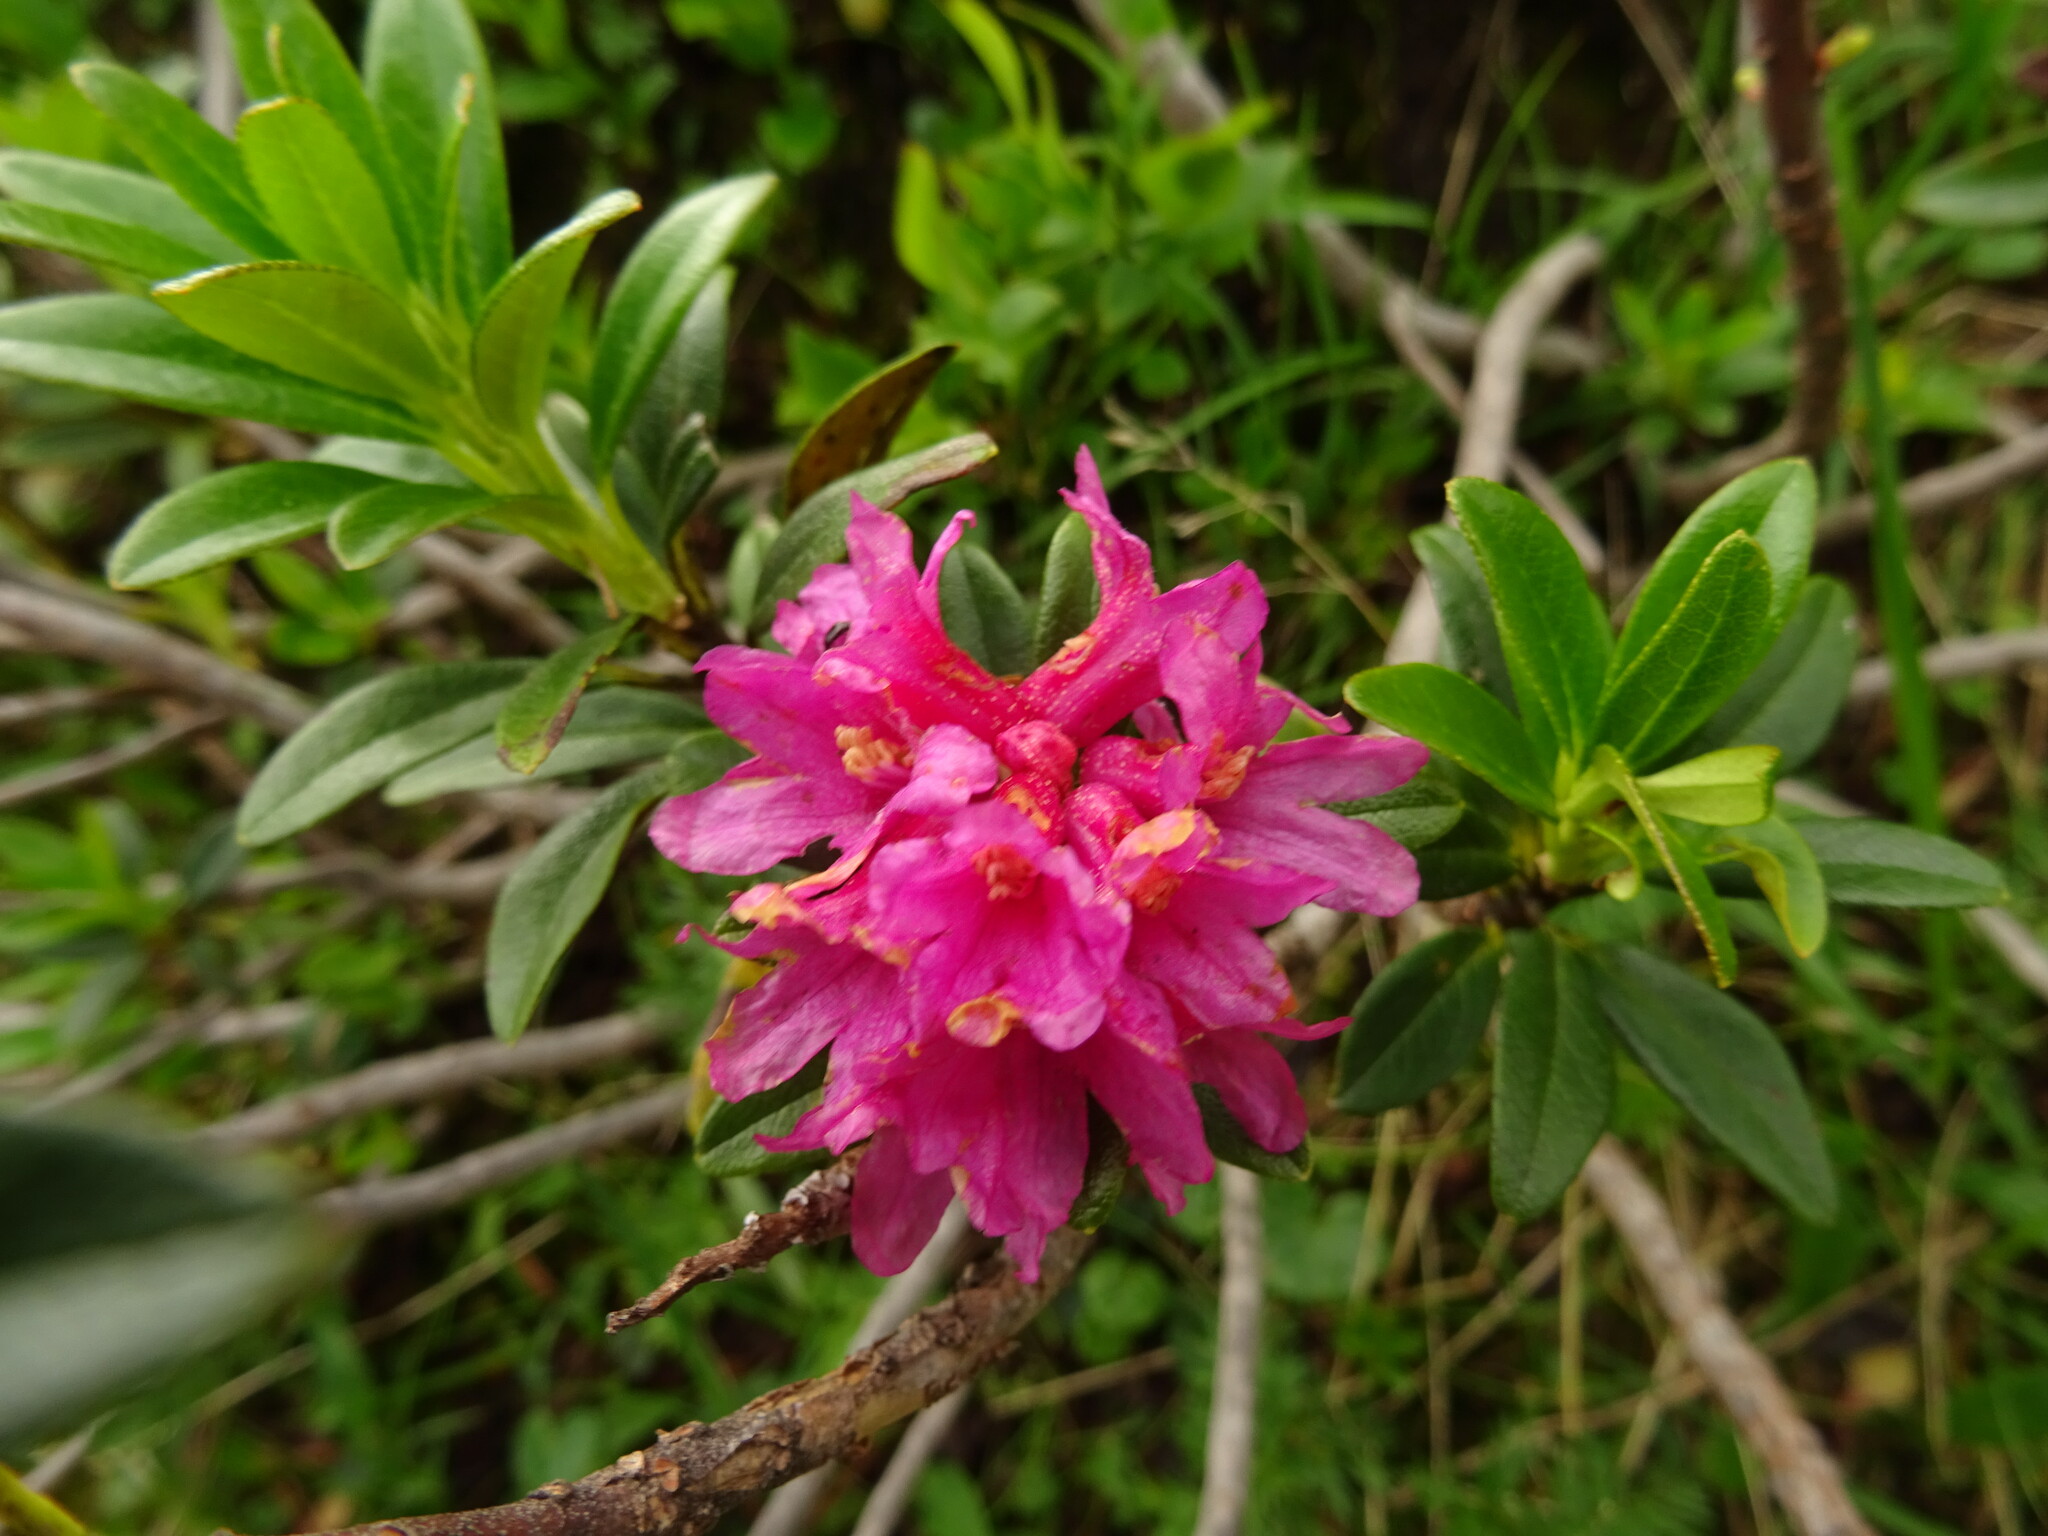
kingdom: Plantae
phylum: Tracheophyta
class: Magnoliopsida
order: Ericales
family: Ericaceae
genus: Rhododendron
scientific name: Rhododendron ferrugineum
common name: Alpenrose
